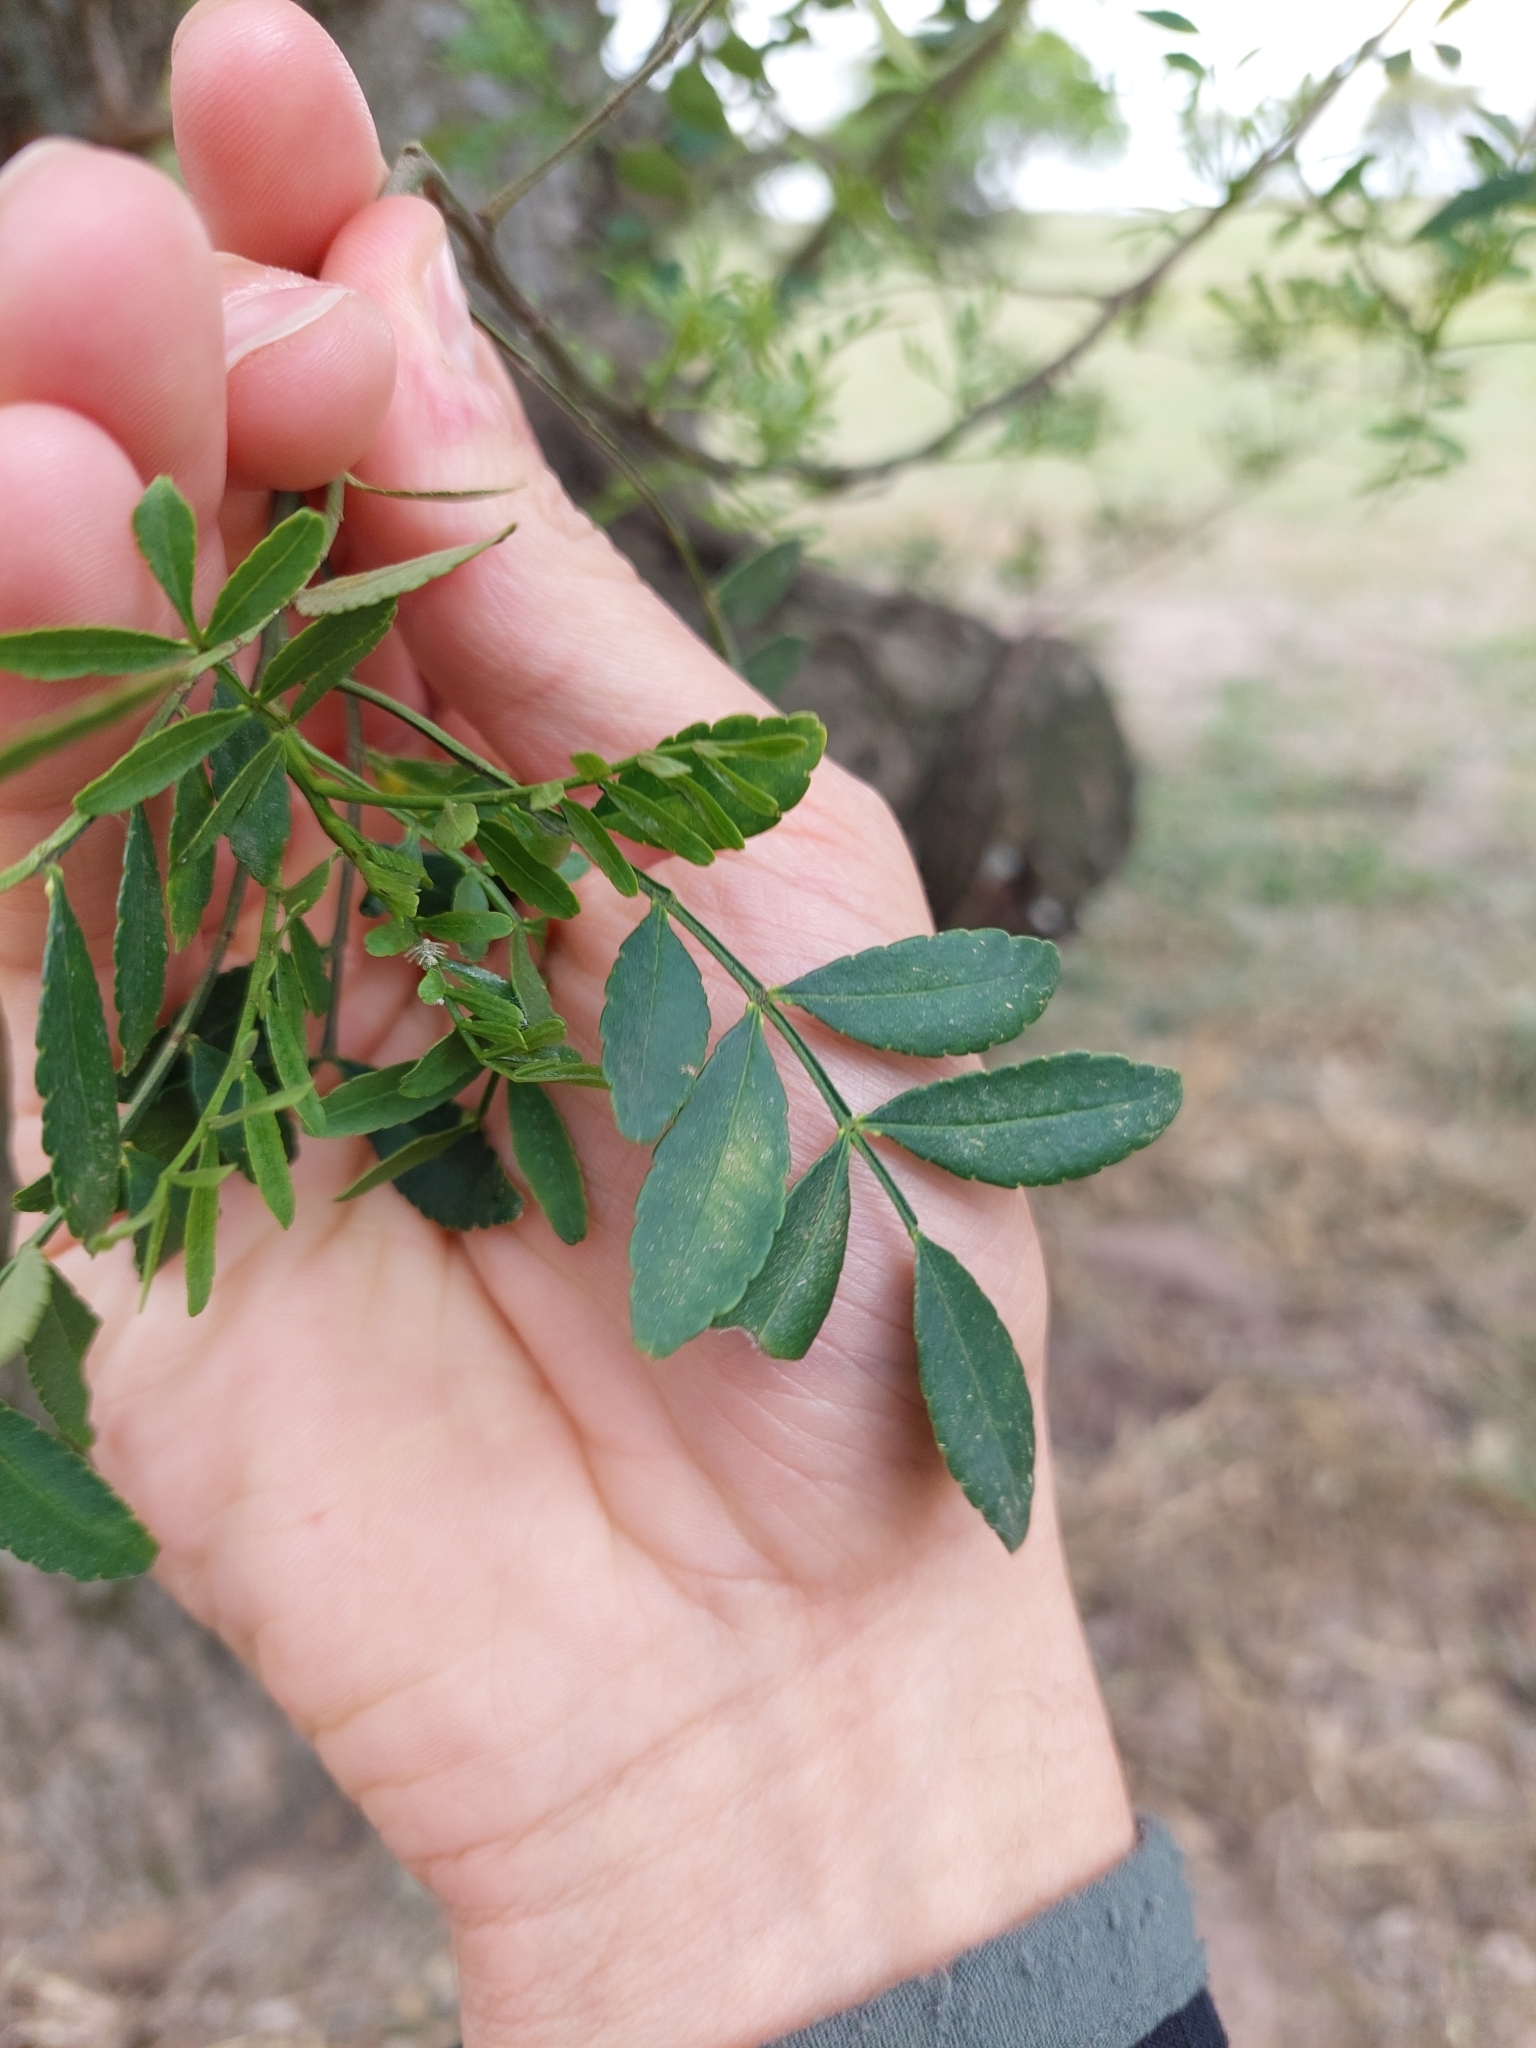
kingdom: Plantae
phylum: Tracheophyta
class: Magnoliopsida
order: Sapindales
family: Rutaceae
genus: Zanthoxylum
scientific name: Zanthoxylum fagara
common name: Lime prickly-ash
